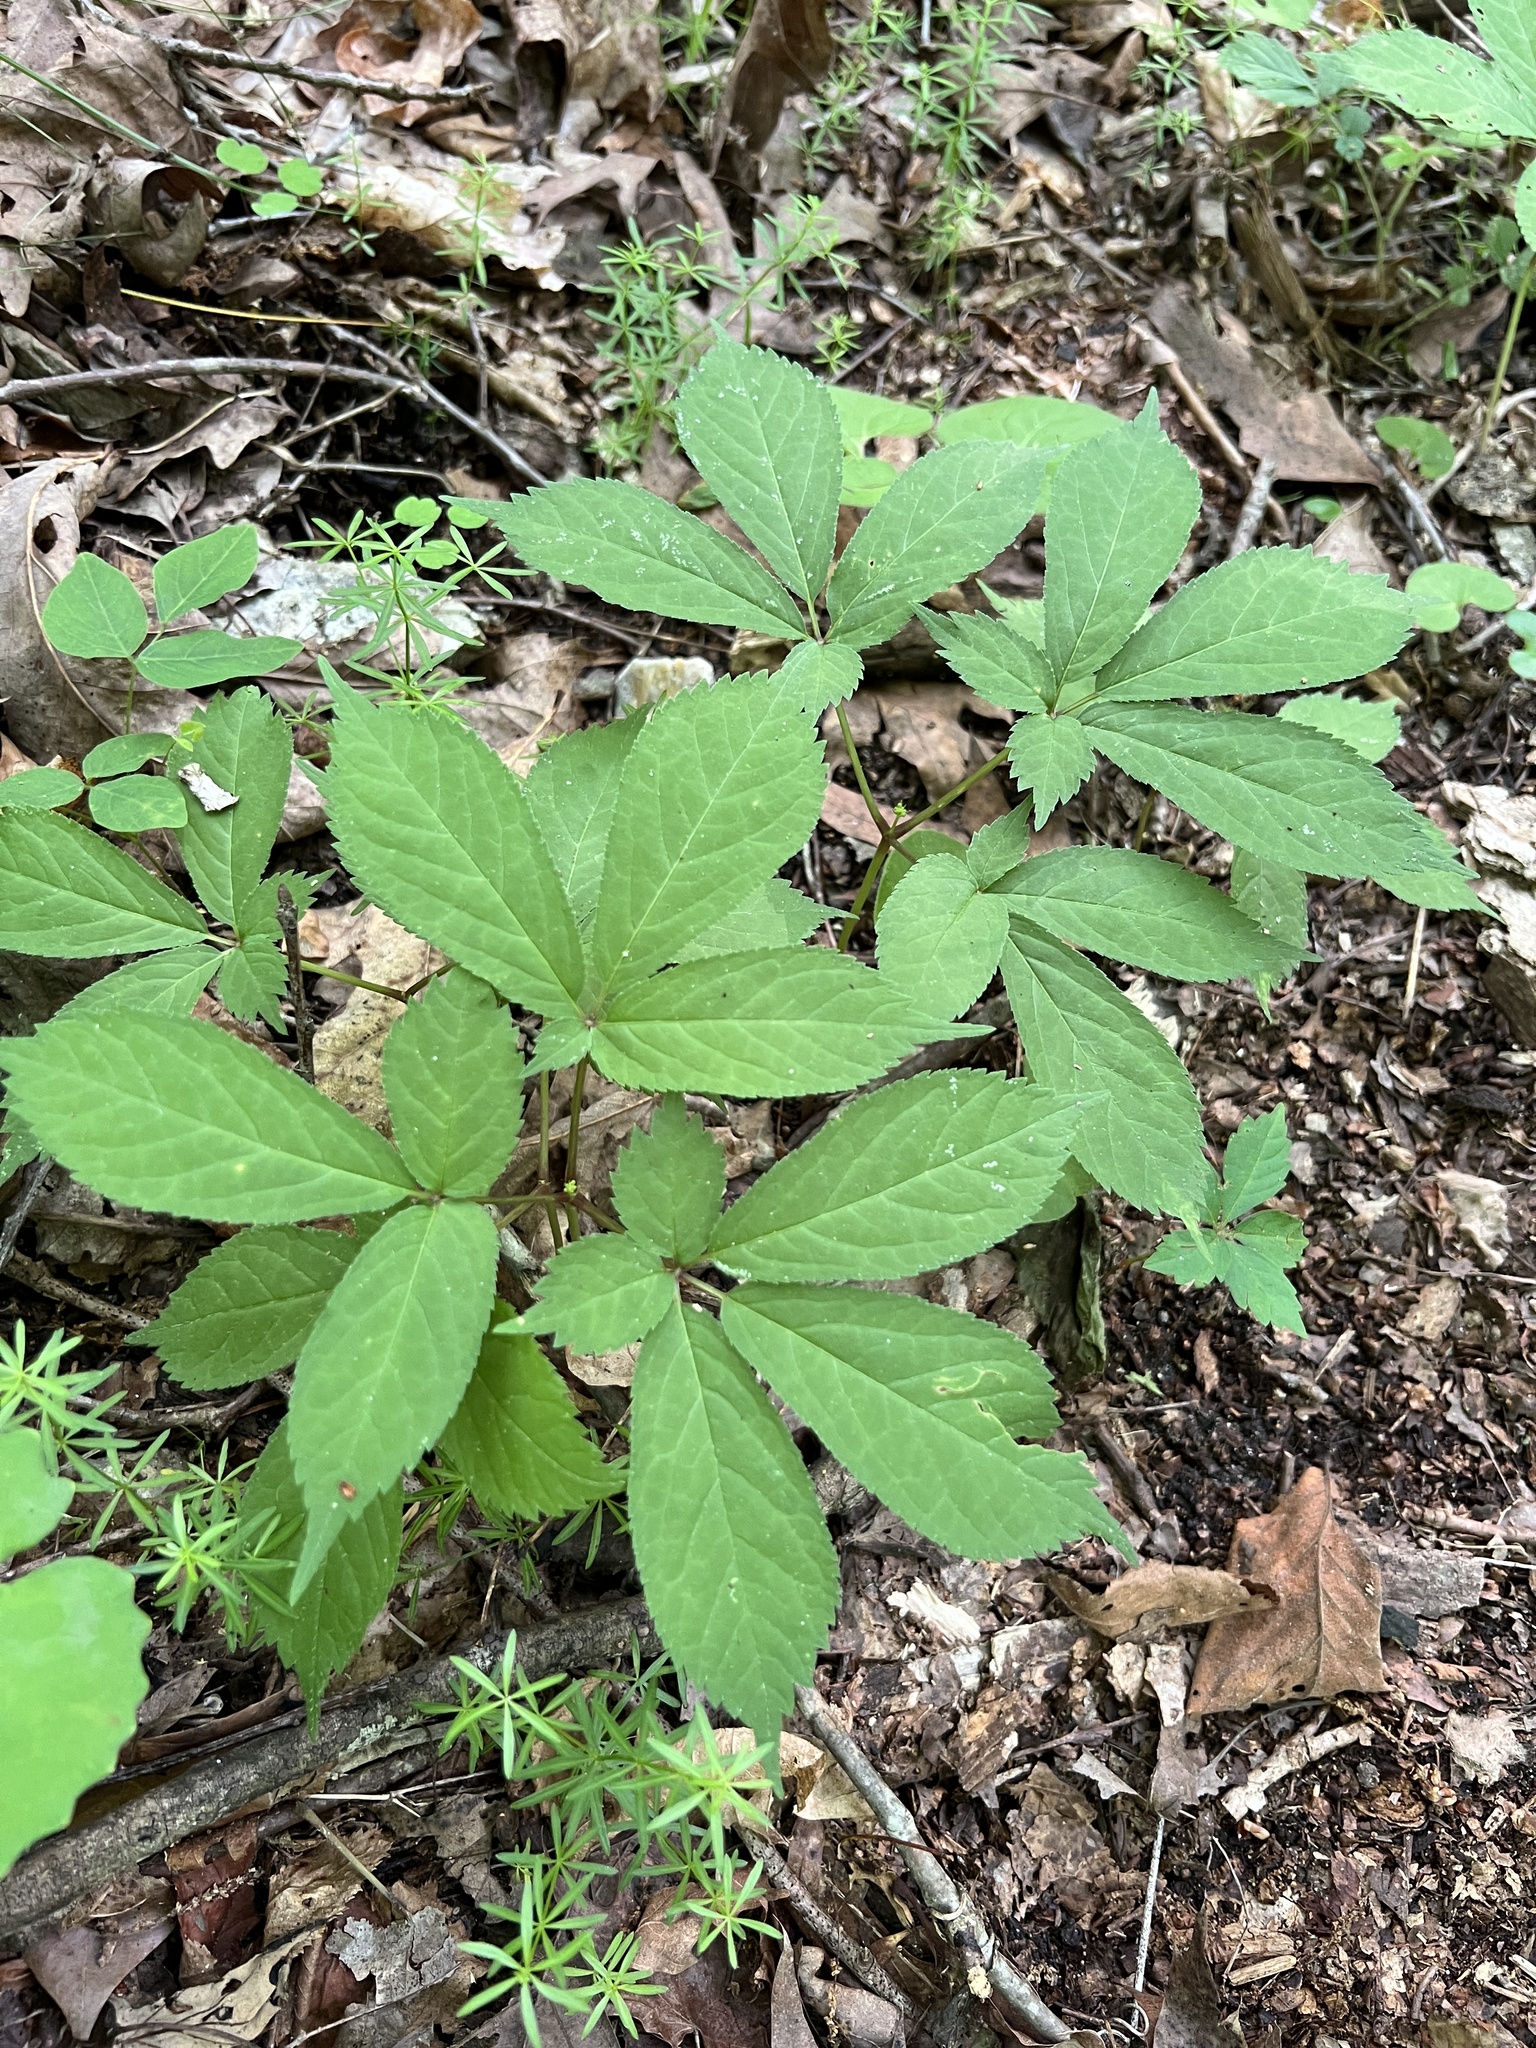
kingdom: Plantae
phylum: Tracheophyta
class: Magnoliopsida
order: Apiales
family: Araliaceae
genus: Panax
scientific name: Panax quinquefolius
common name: American ginseng
